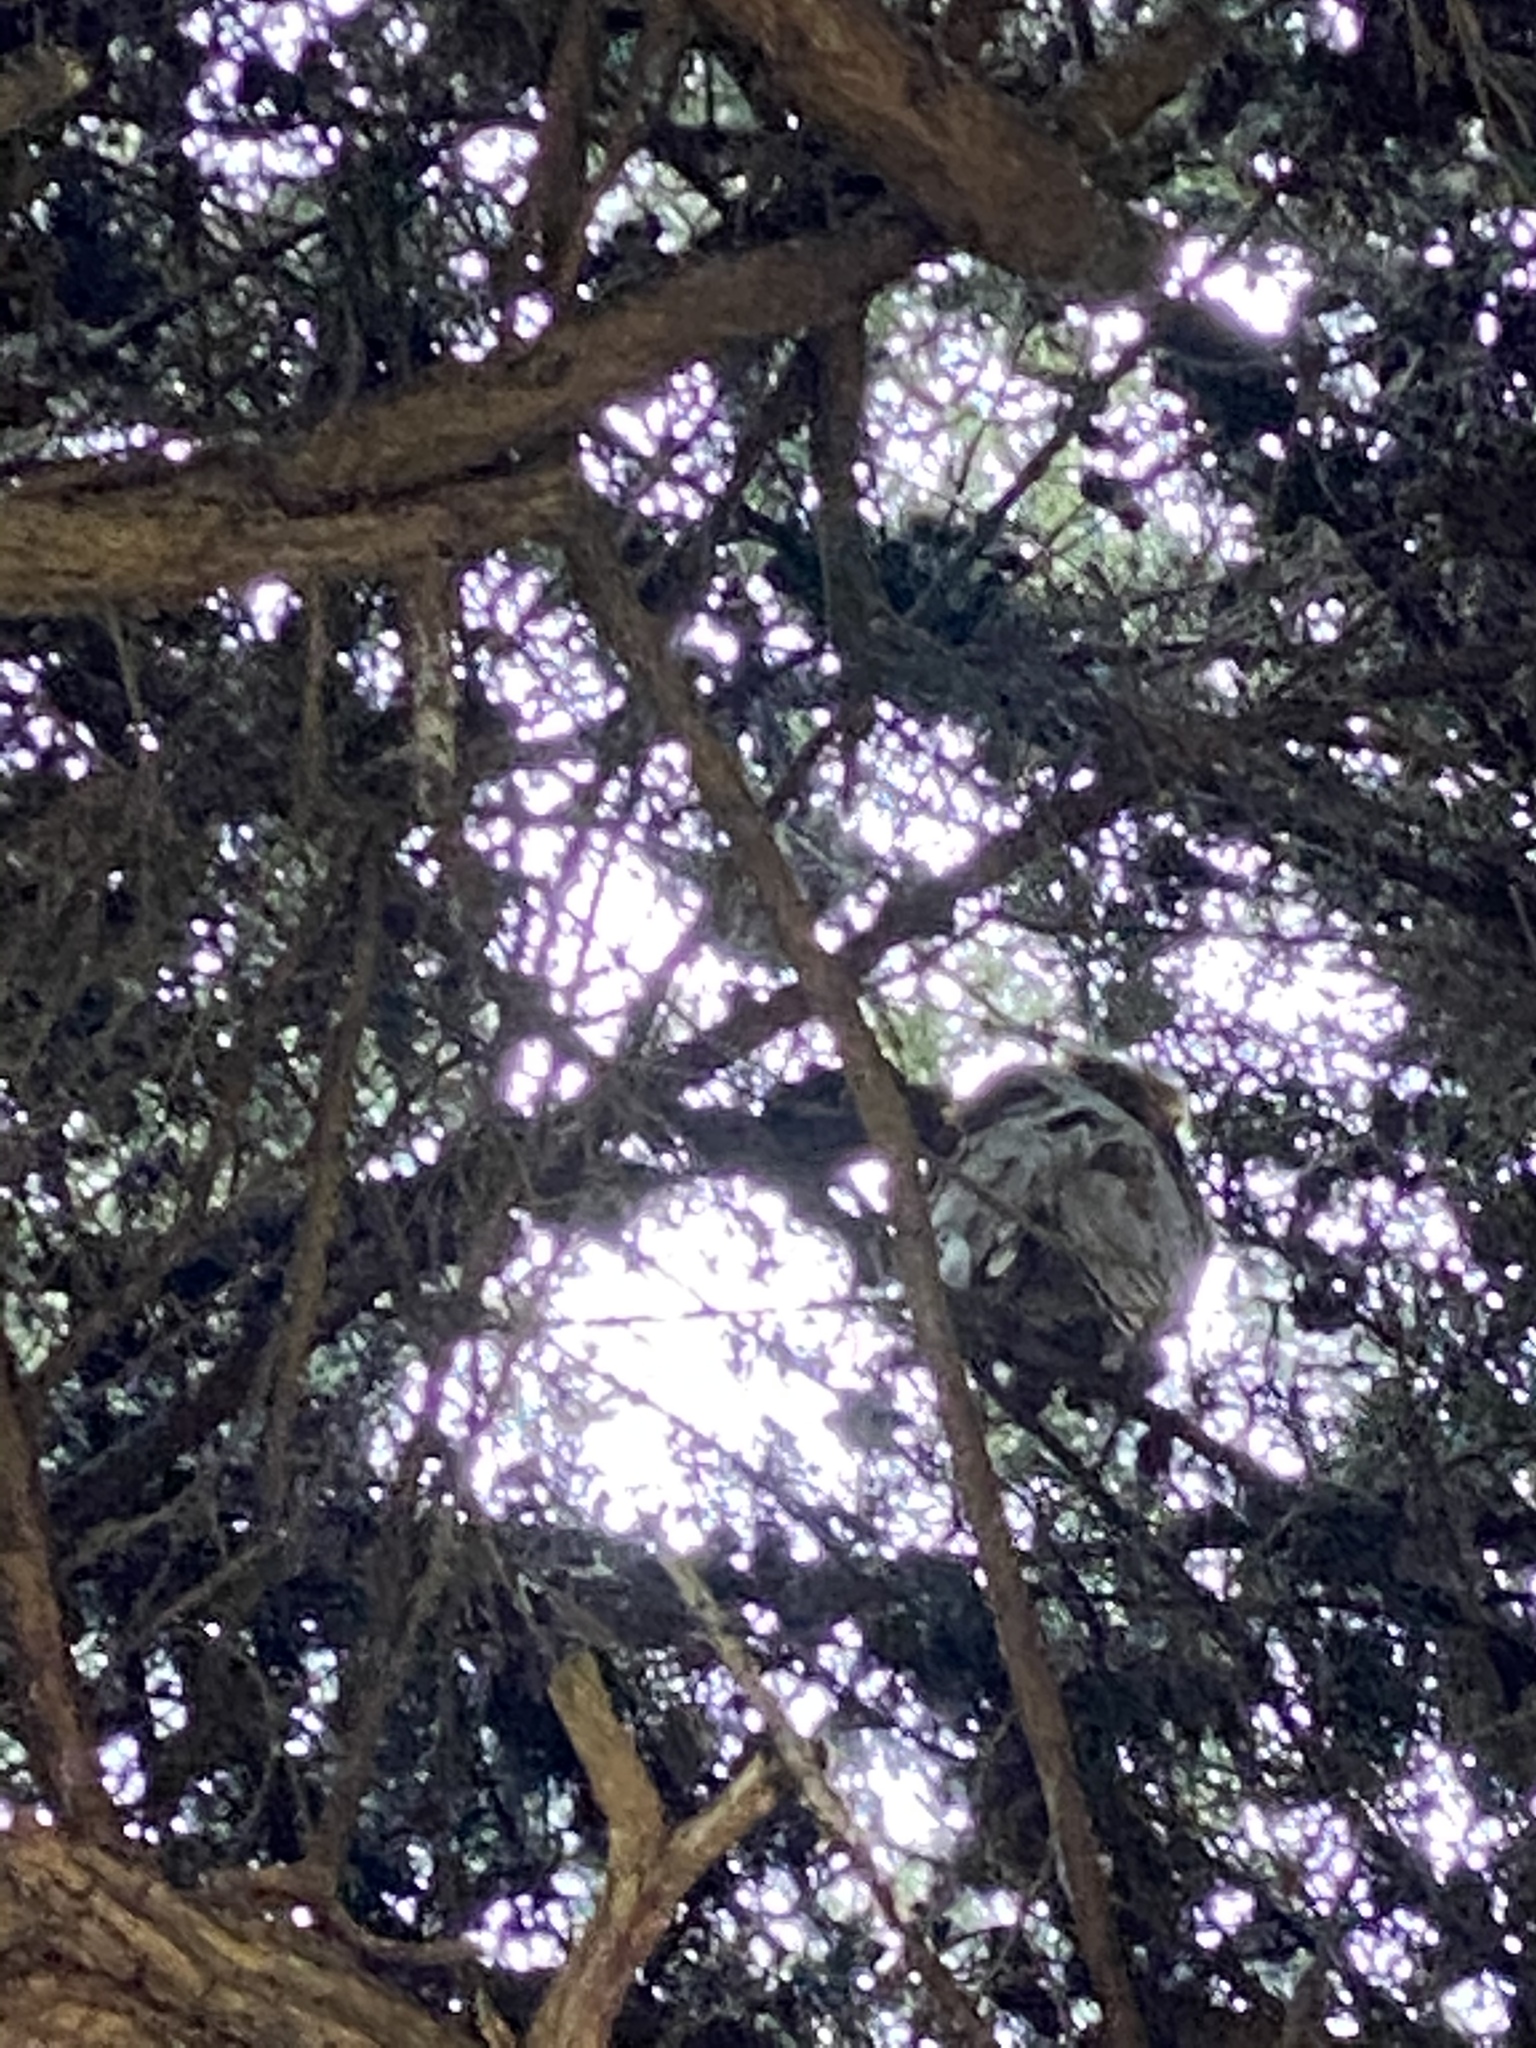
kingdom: Animalia
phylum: Chordata
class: Aves
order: Strigiformes
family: Strigidae
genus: Bubo
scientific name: Bubo virginianus
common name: Great horned owl
